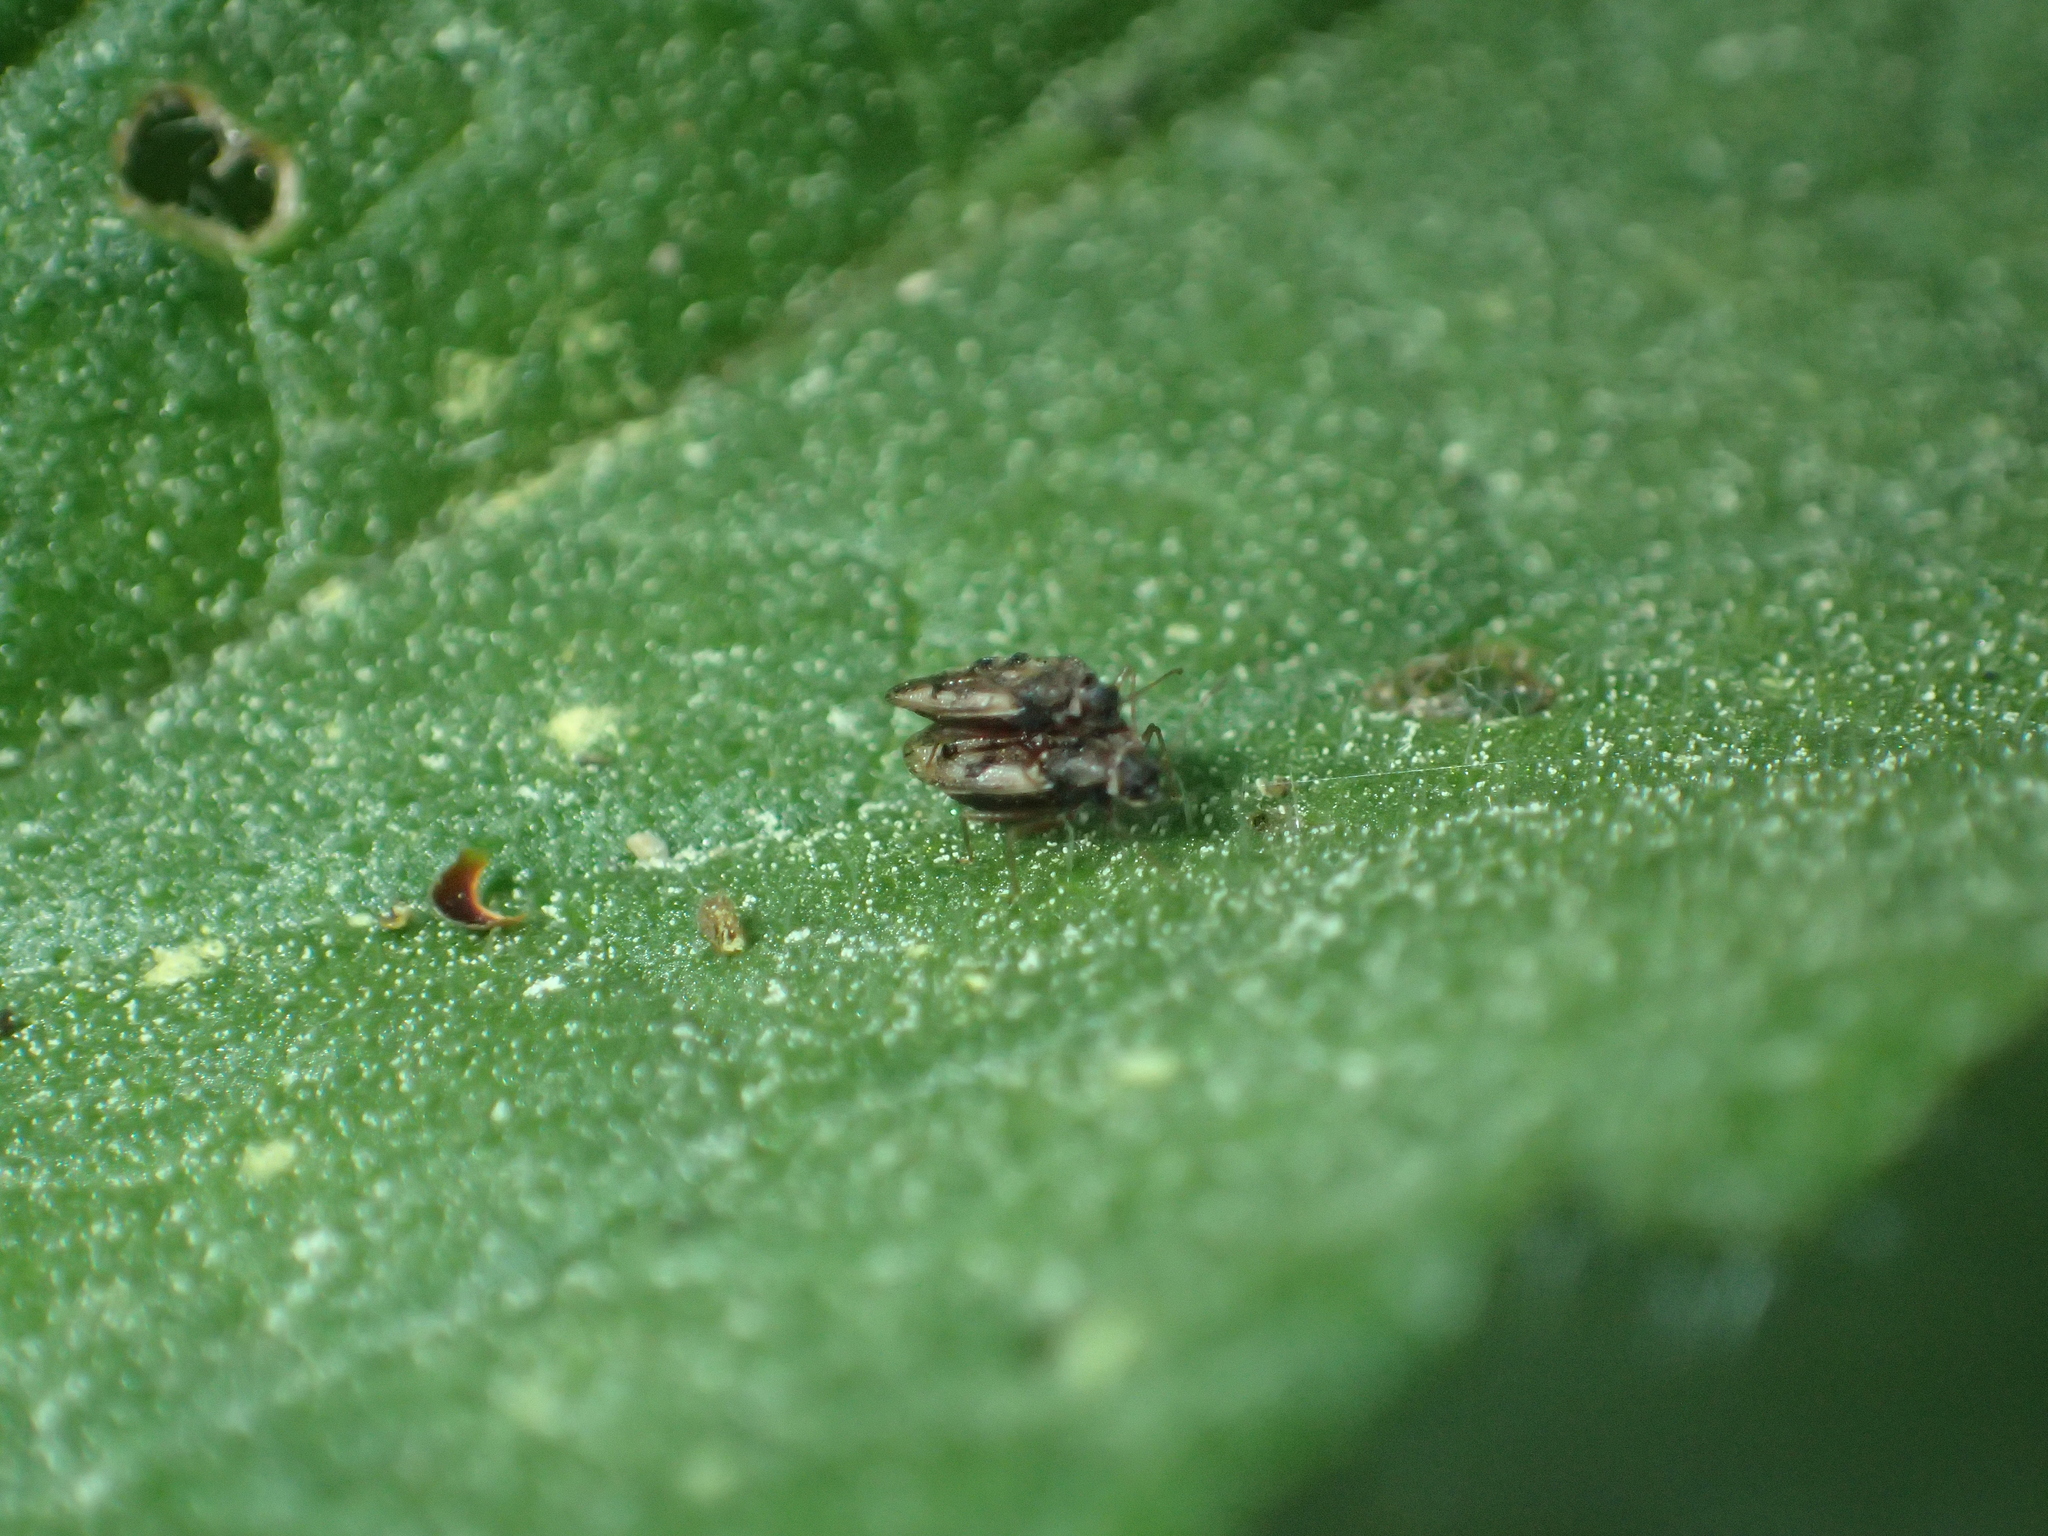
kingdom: Animalia
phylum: Arthropoda
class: Insecta
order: Hemiptera
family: Tingidae
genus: Dictyla
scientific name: Dictyla humuli
